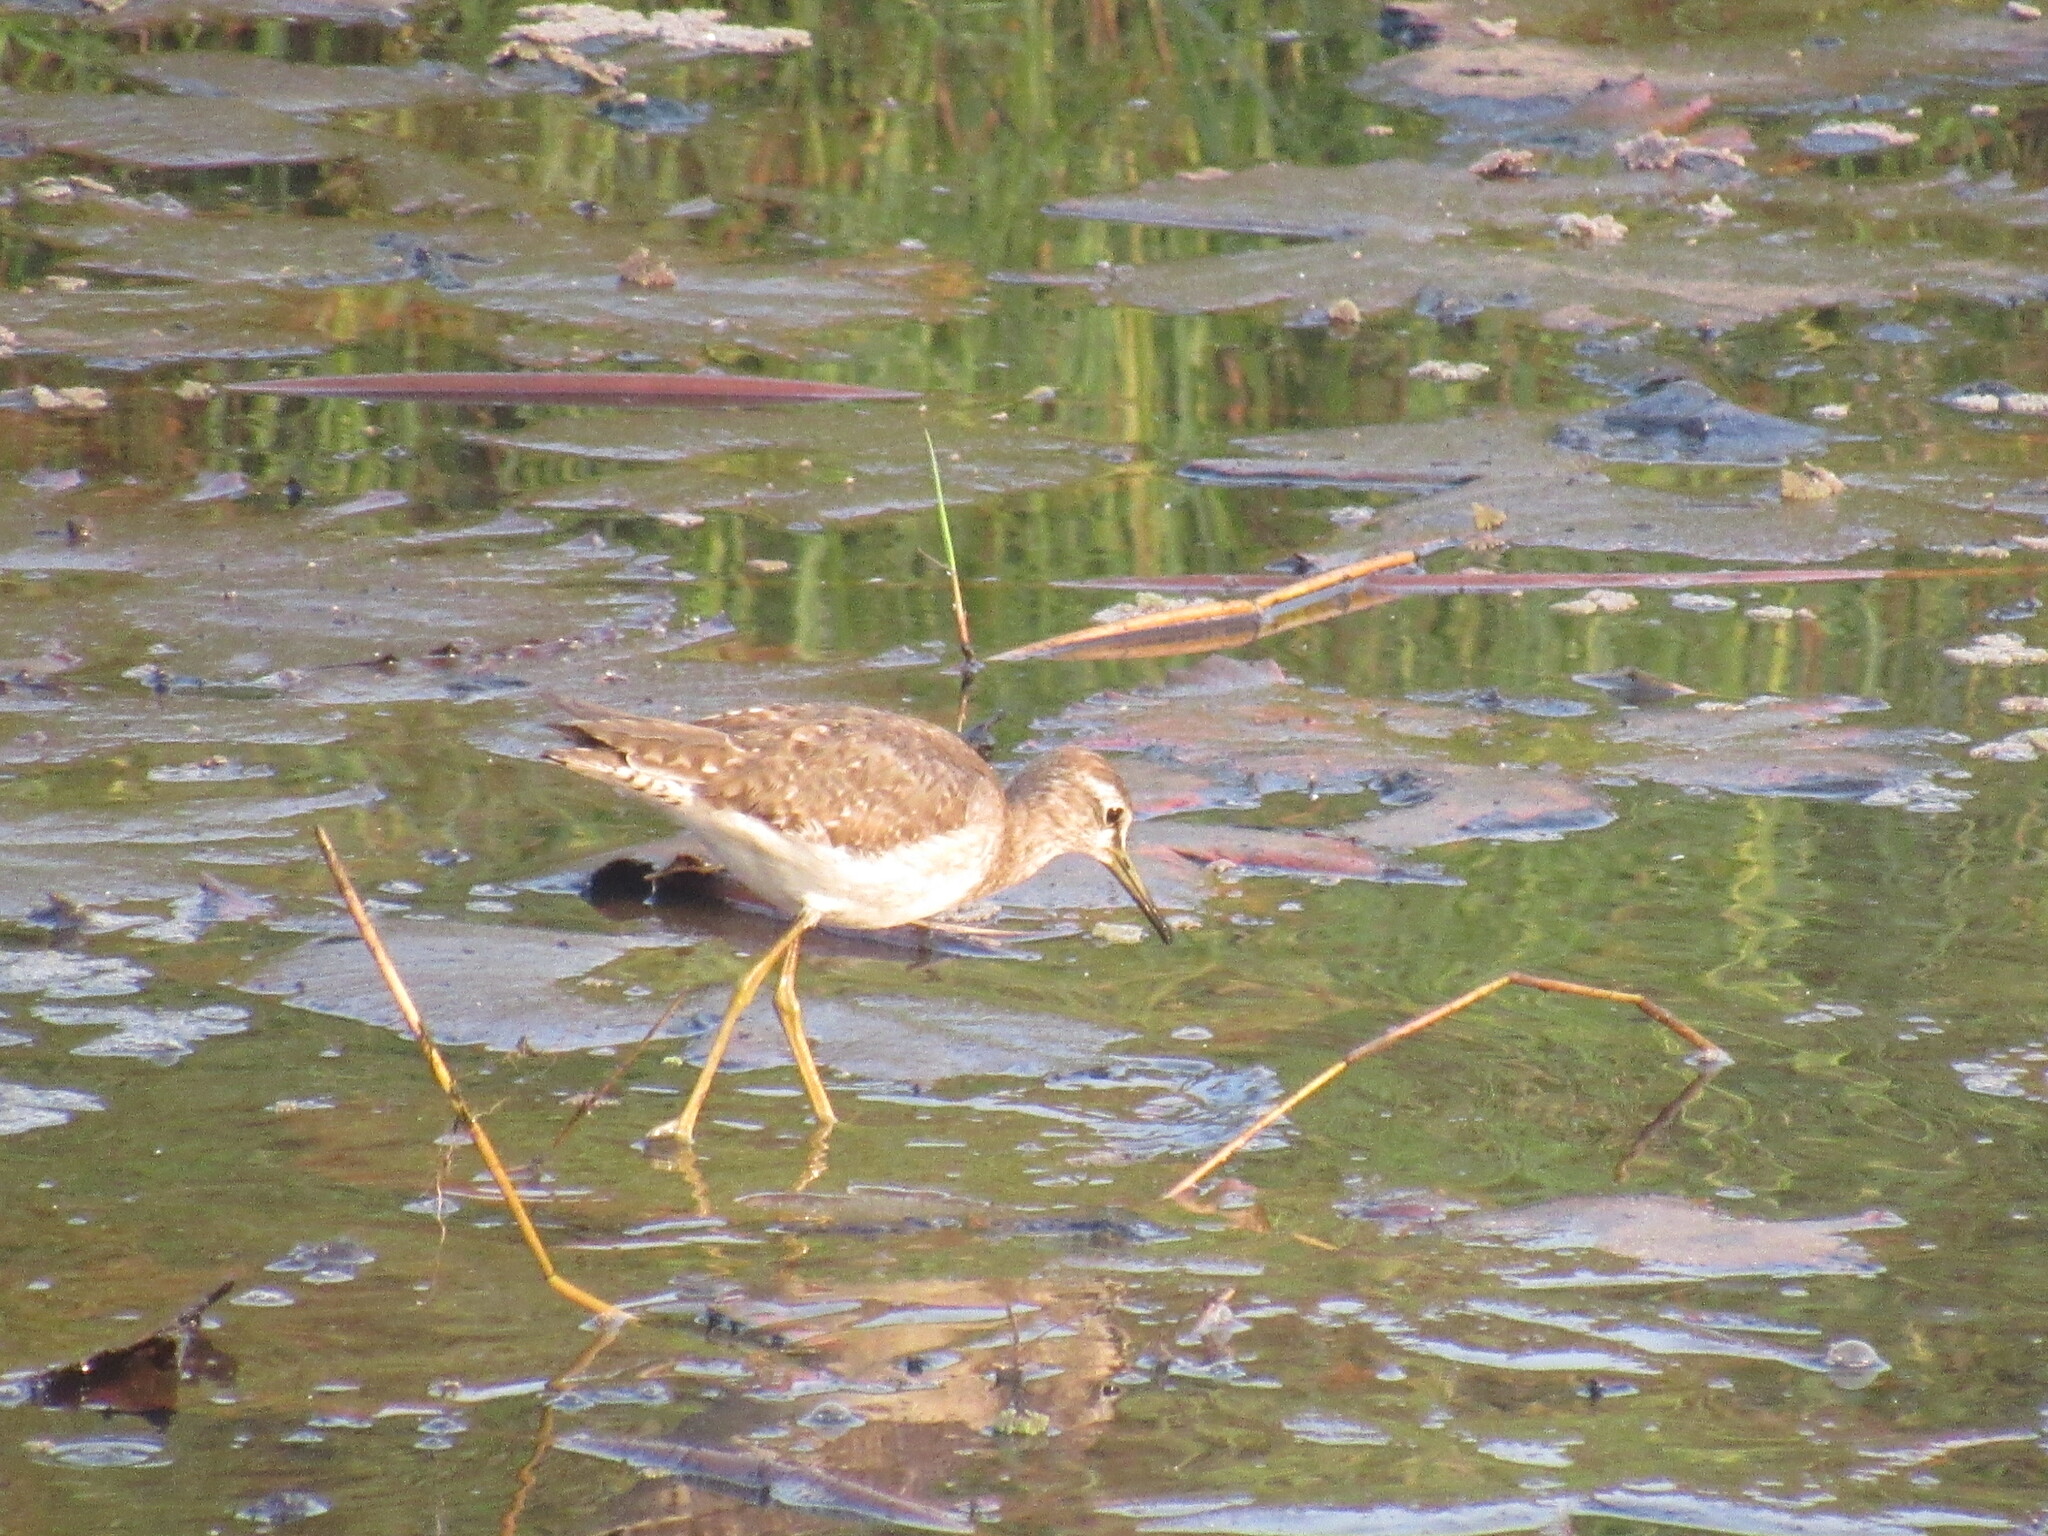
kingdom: Animalia
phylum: Chordata
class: Aves
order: Charadriiformes
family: Scolopacidae
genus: Tringa
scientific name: Tringa glareola
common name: Wood sandpiper
